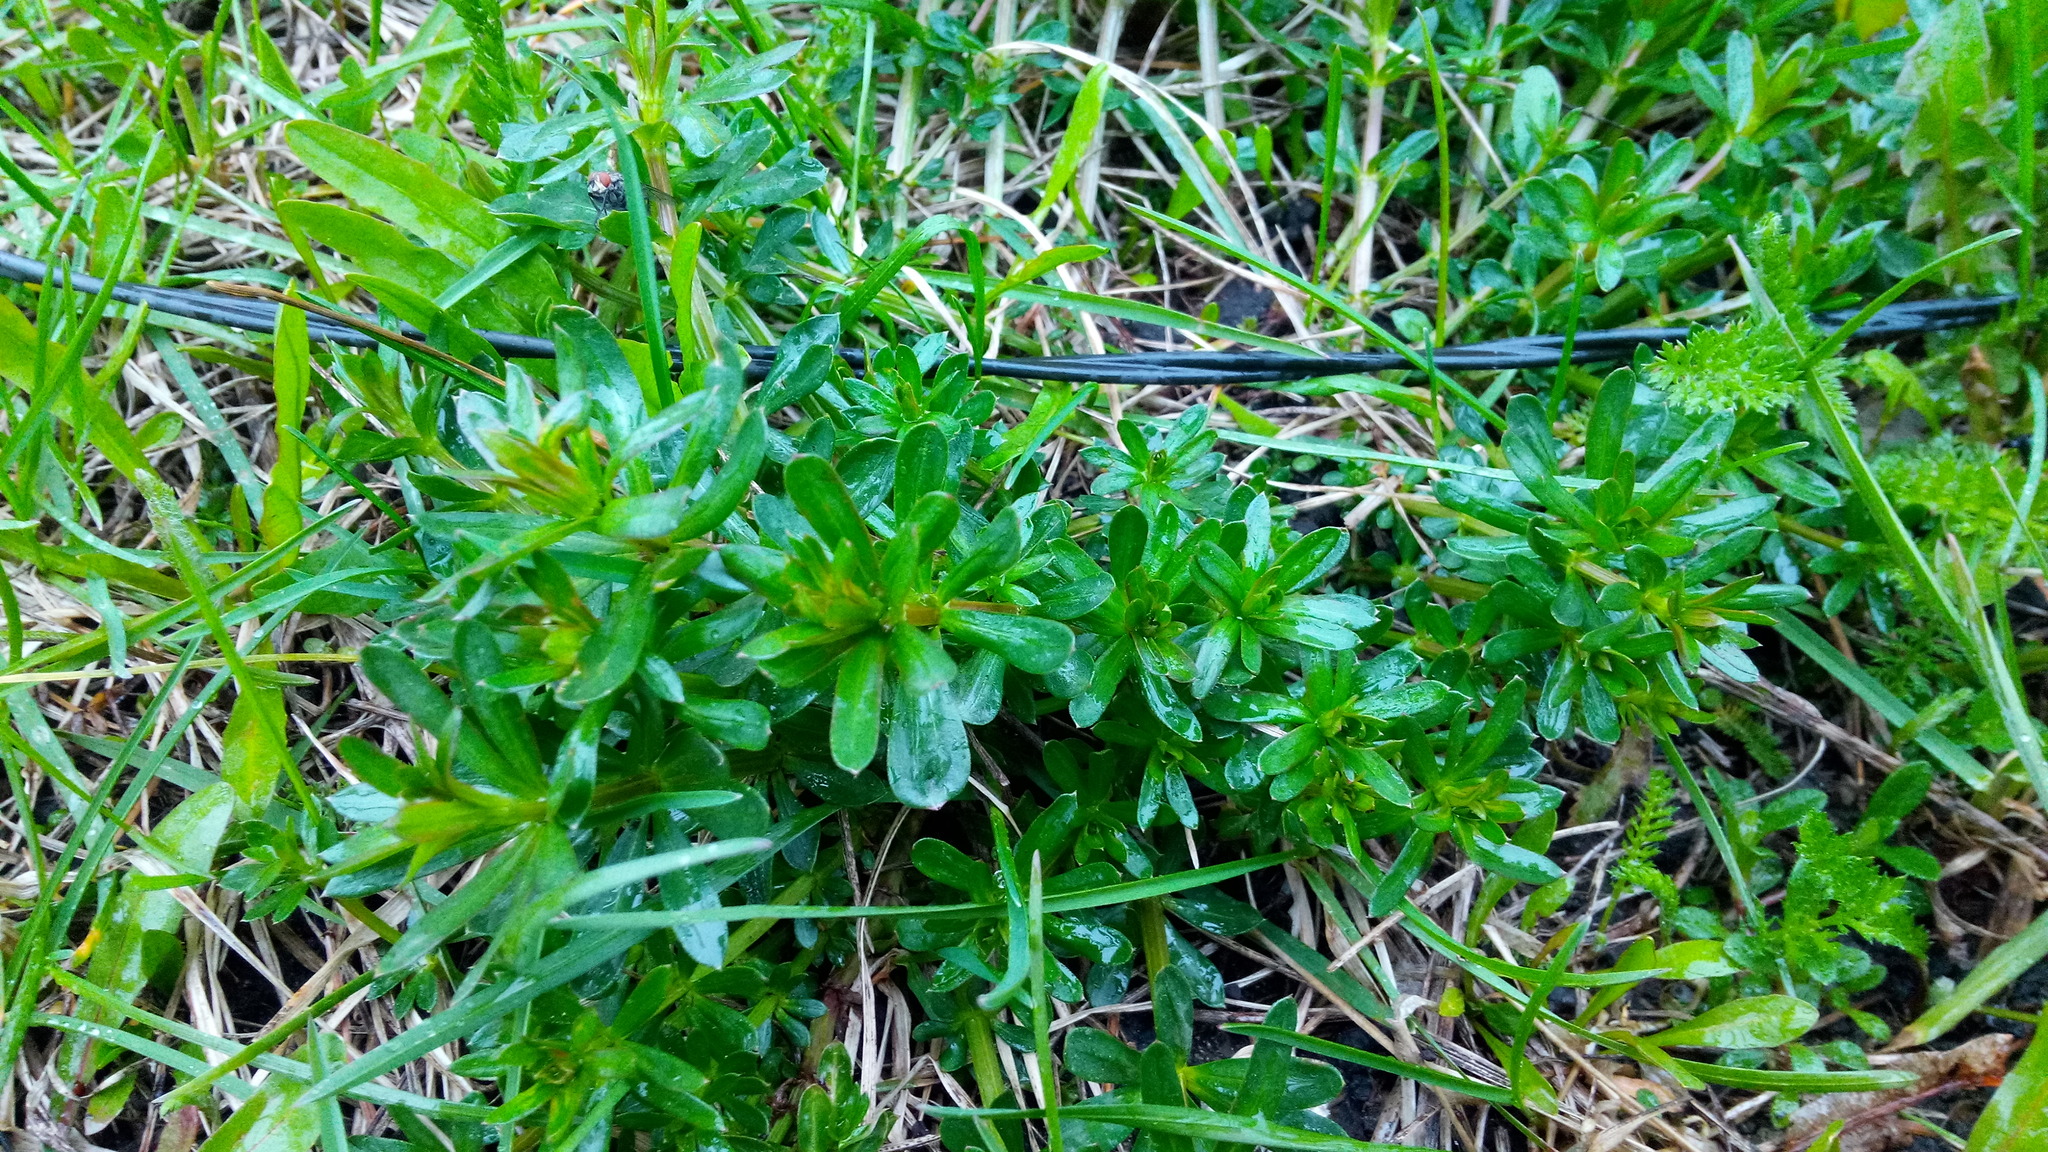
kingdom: Plantae
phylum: Tracheophyta
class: Magnoliopsida
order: Gentianales
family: Rubiaceae
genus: Galium
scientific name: Galium mollugo
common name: Hedge bedstraw
